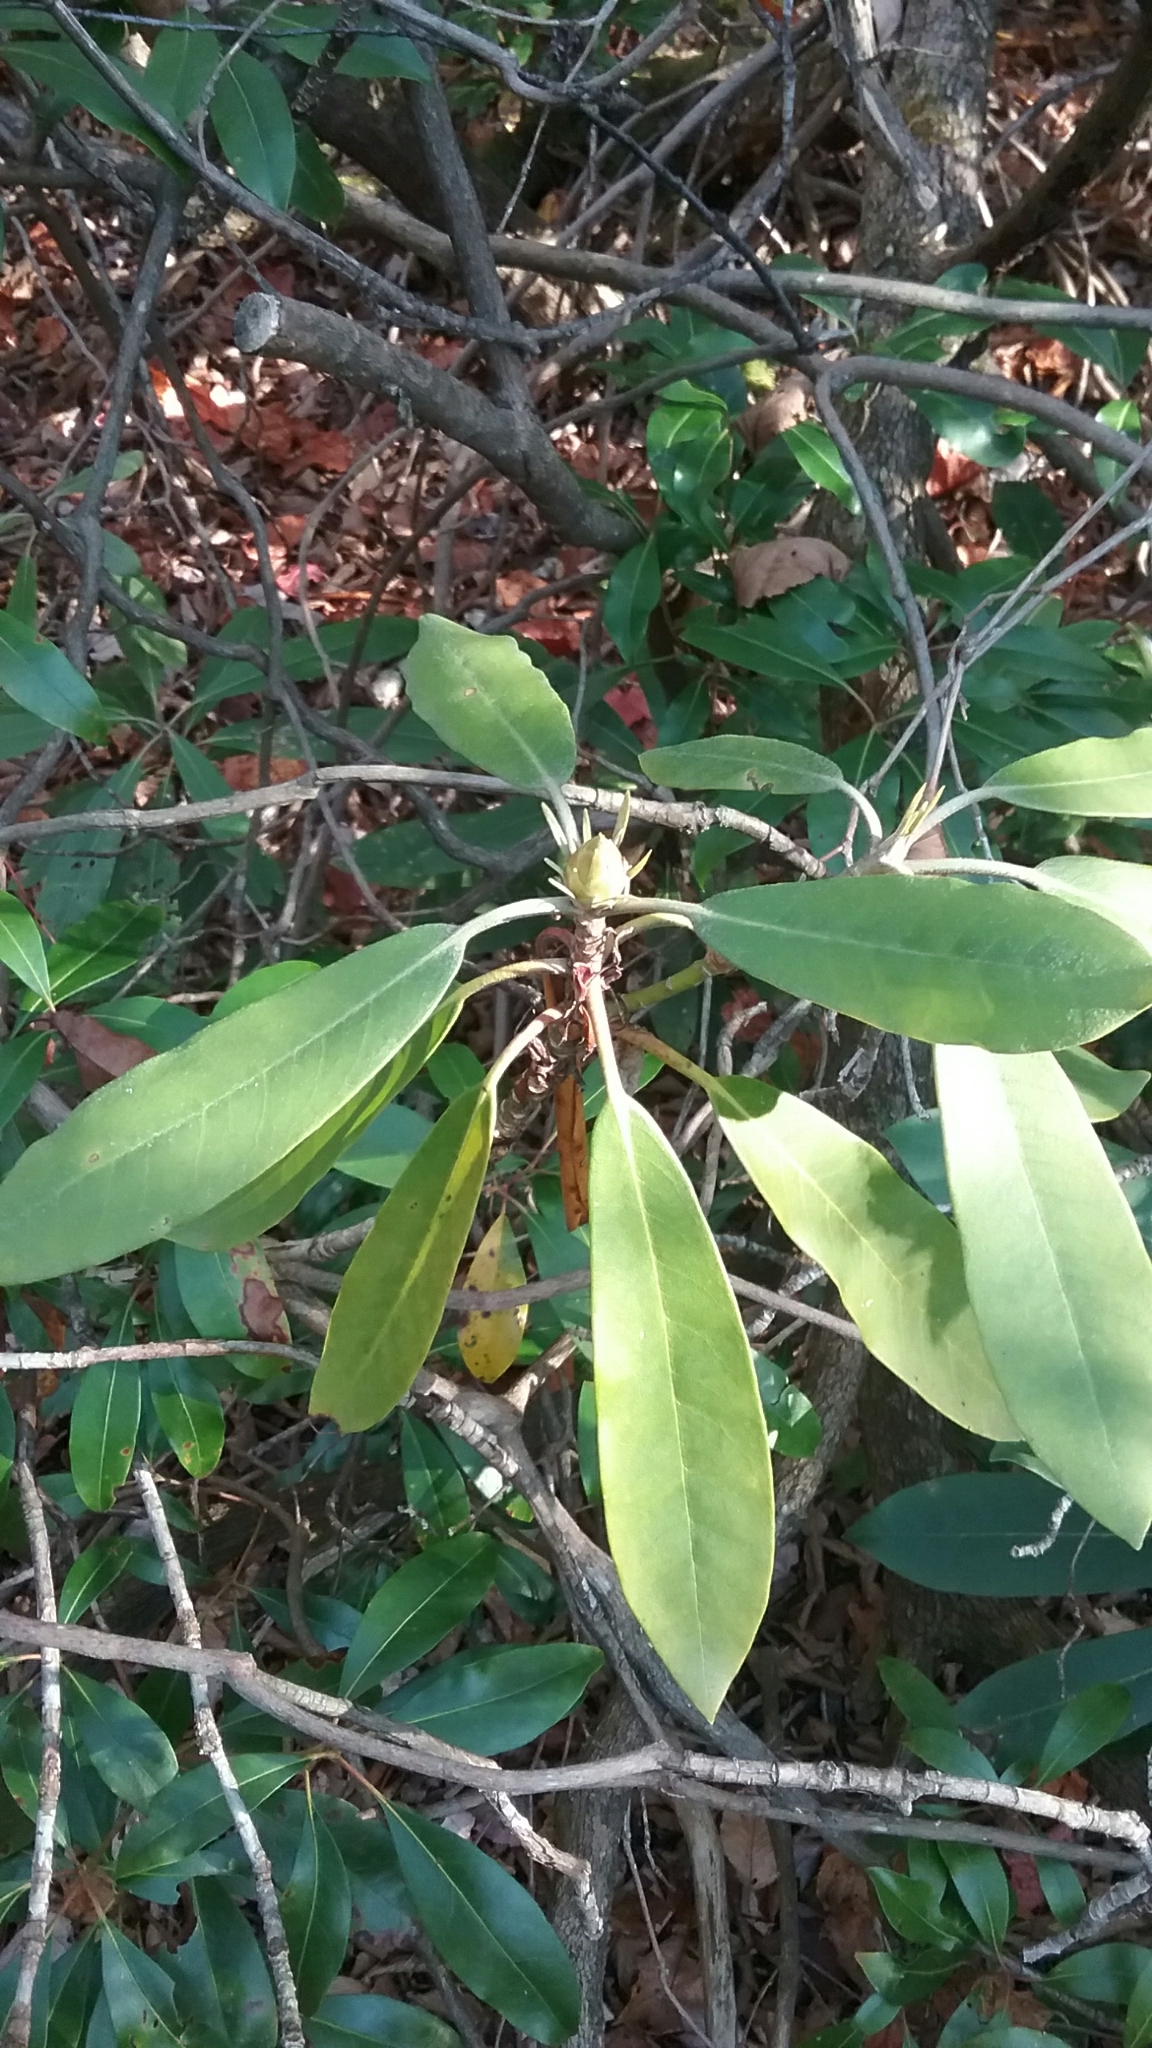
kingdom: Plantae
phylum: Tracheophyta
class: Magnoliopsida
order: Ericales
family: Ericaceae
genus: Rhododendron
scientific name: Rhododendron maximum
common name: Great rhododendron
